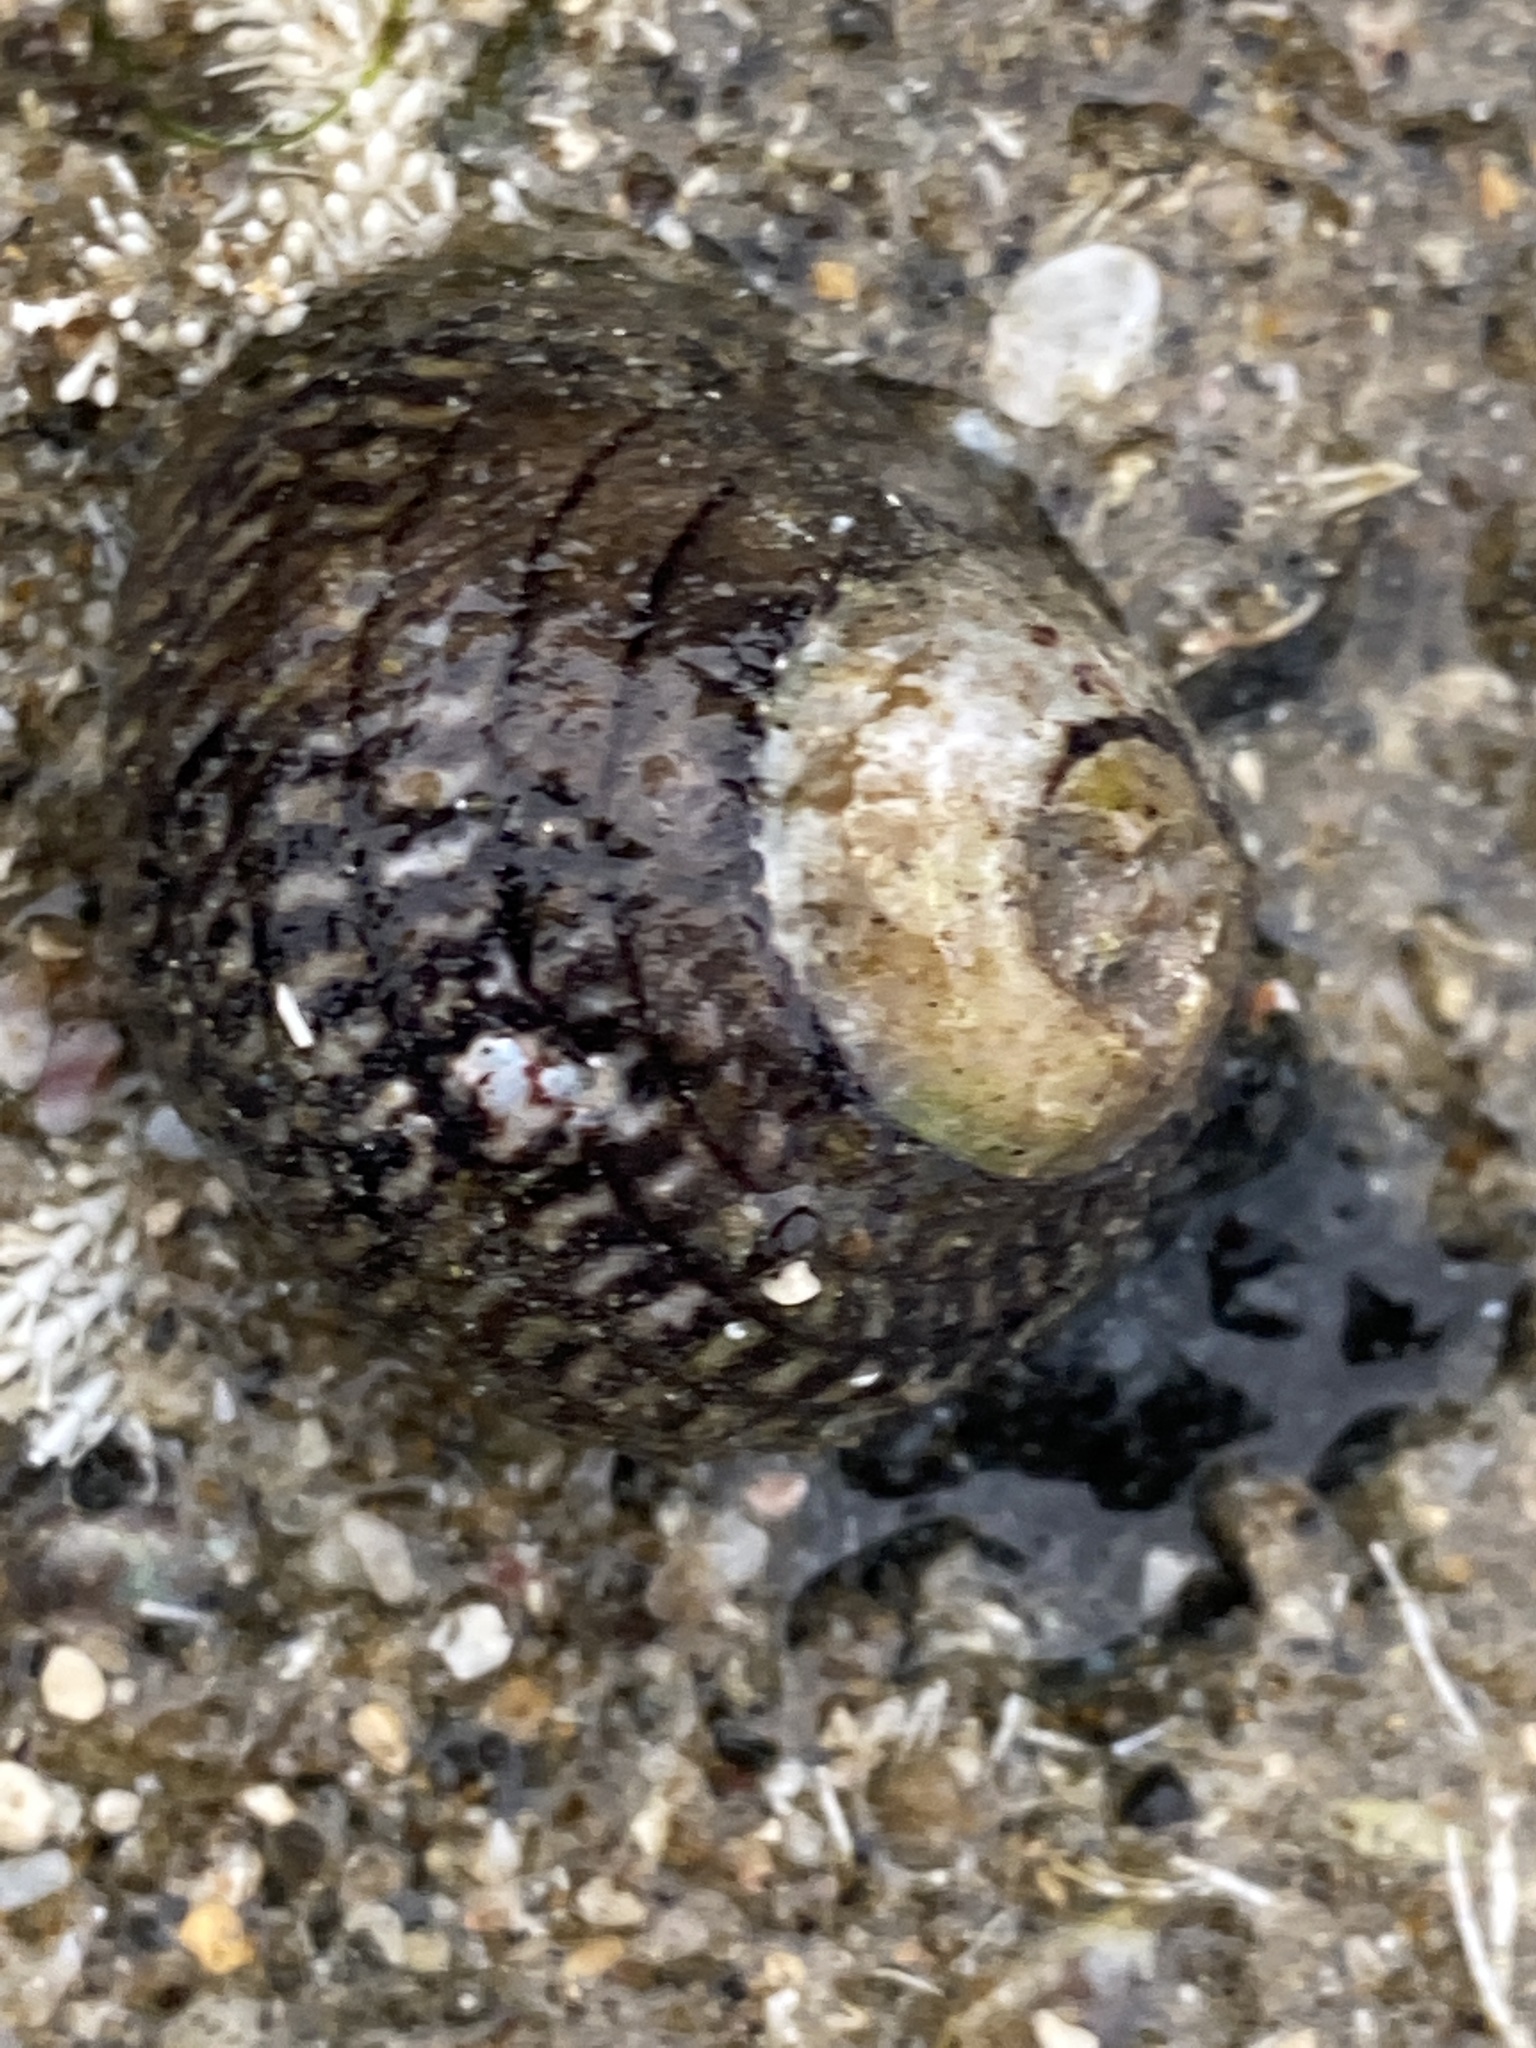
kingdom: Animalia
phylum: Mollusca
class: Gastropoda
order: Trochida
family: Trochidae
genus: Diloma
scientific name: Diloma aethiops
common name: Scorched monodont
